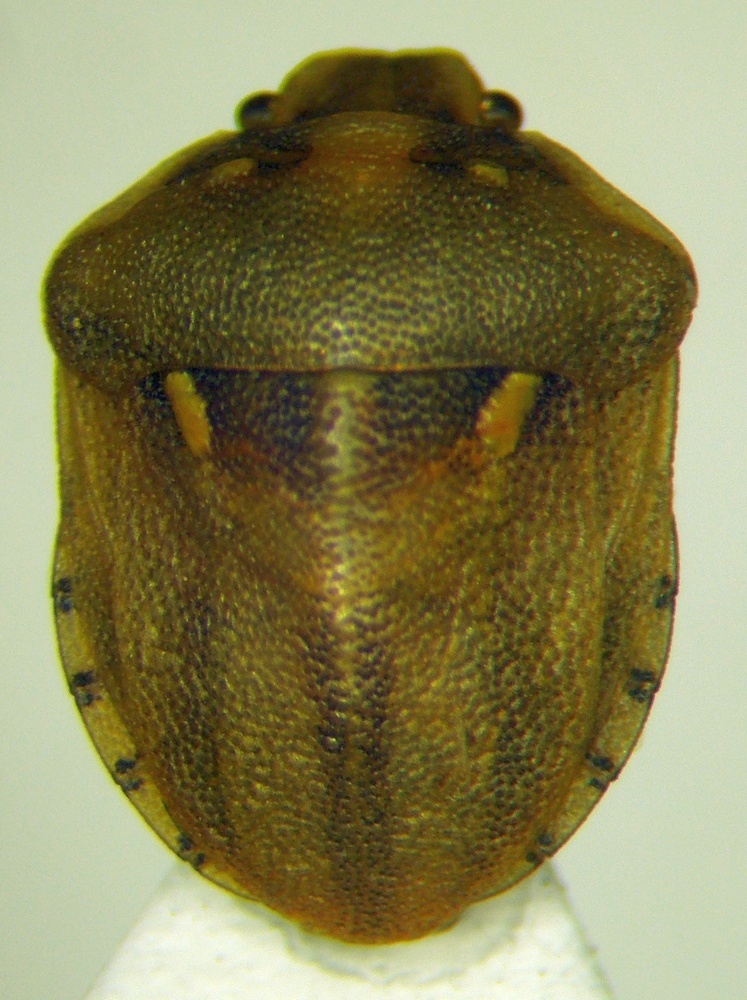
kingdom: Animalia
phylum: Arthropoda
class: Insecta
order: Hemiptera
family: Pentatomidae
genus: Derula
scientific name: Derula flavoguttata
